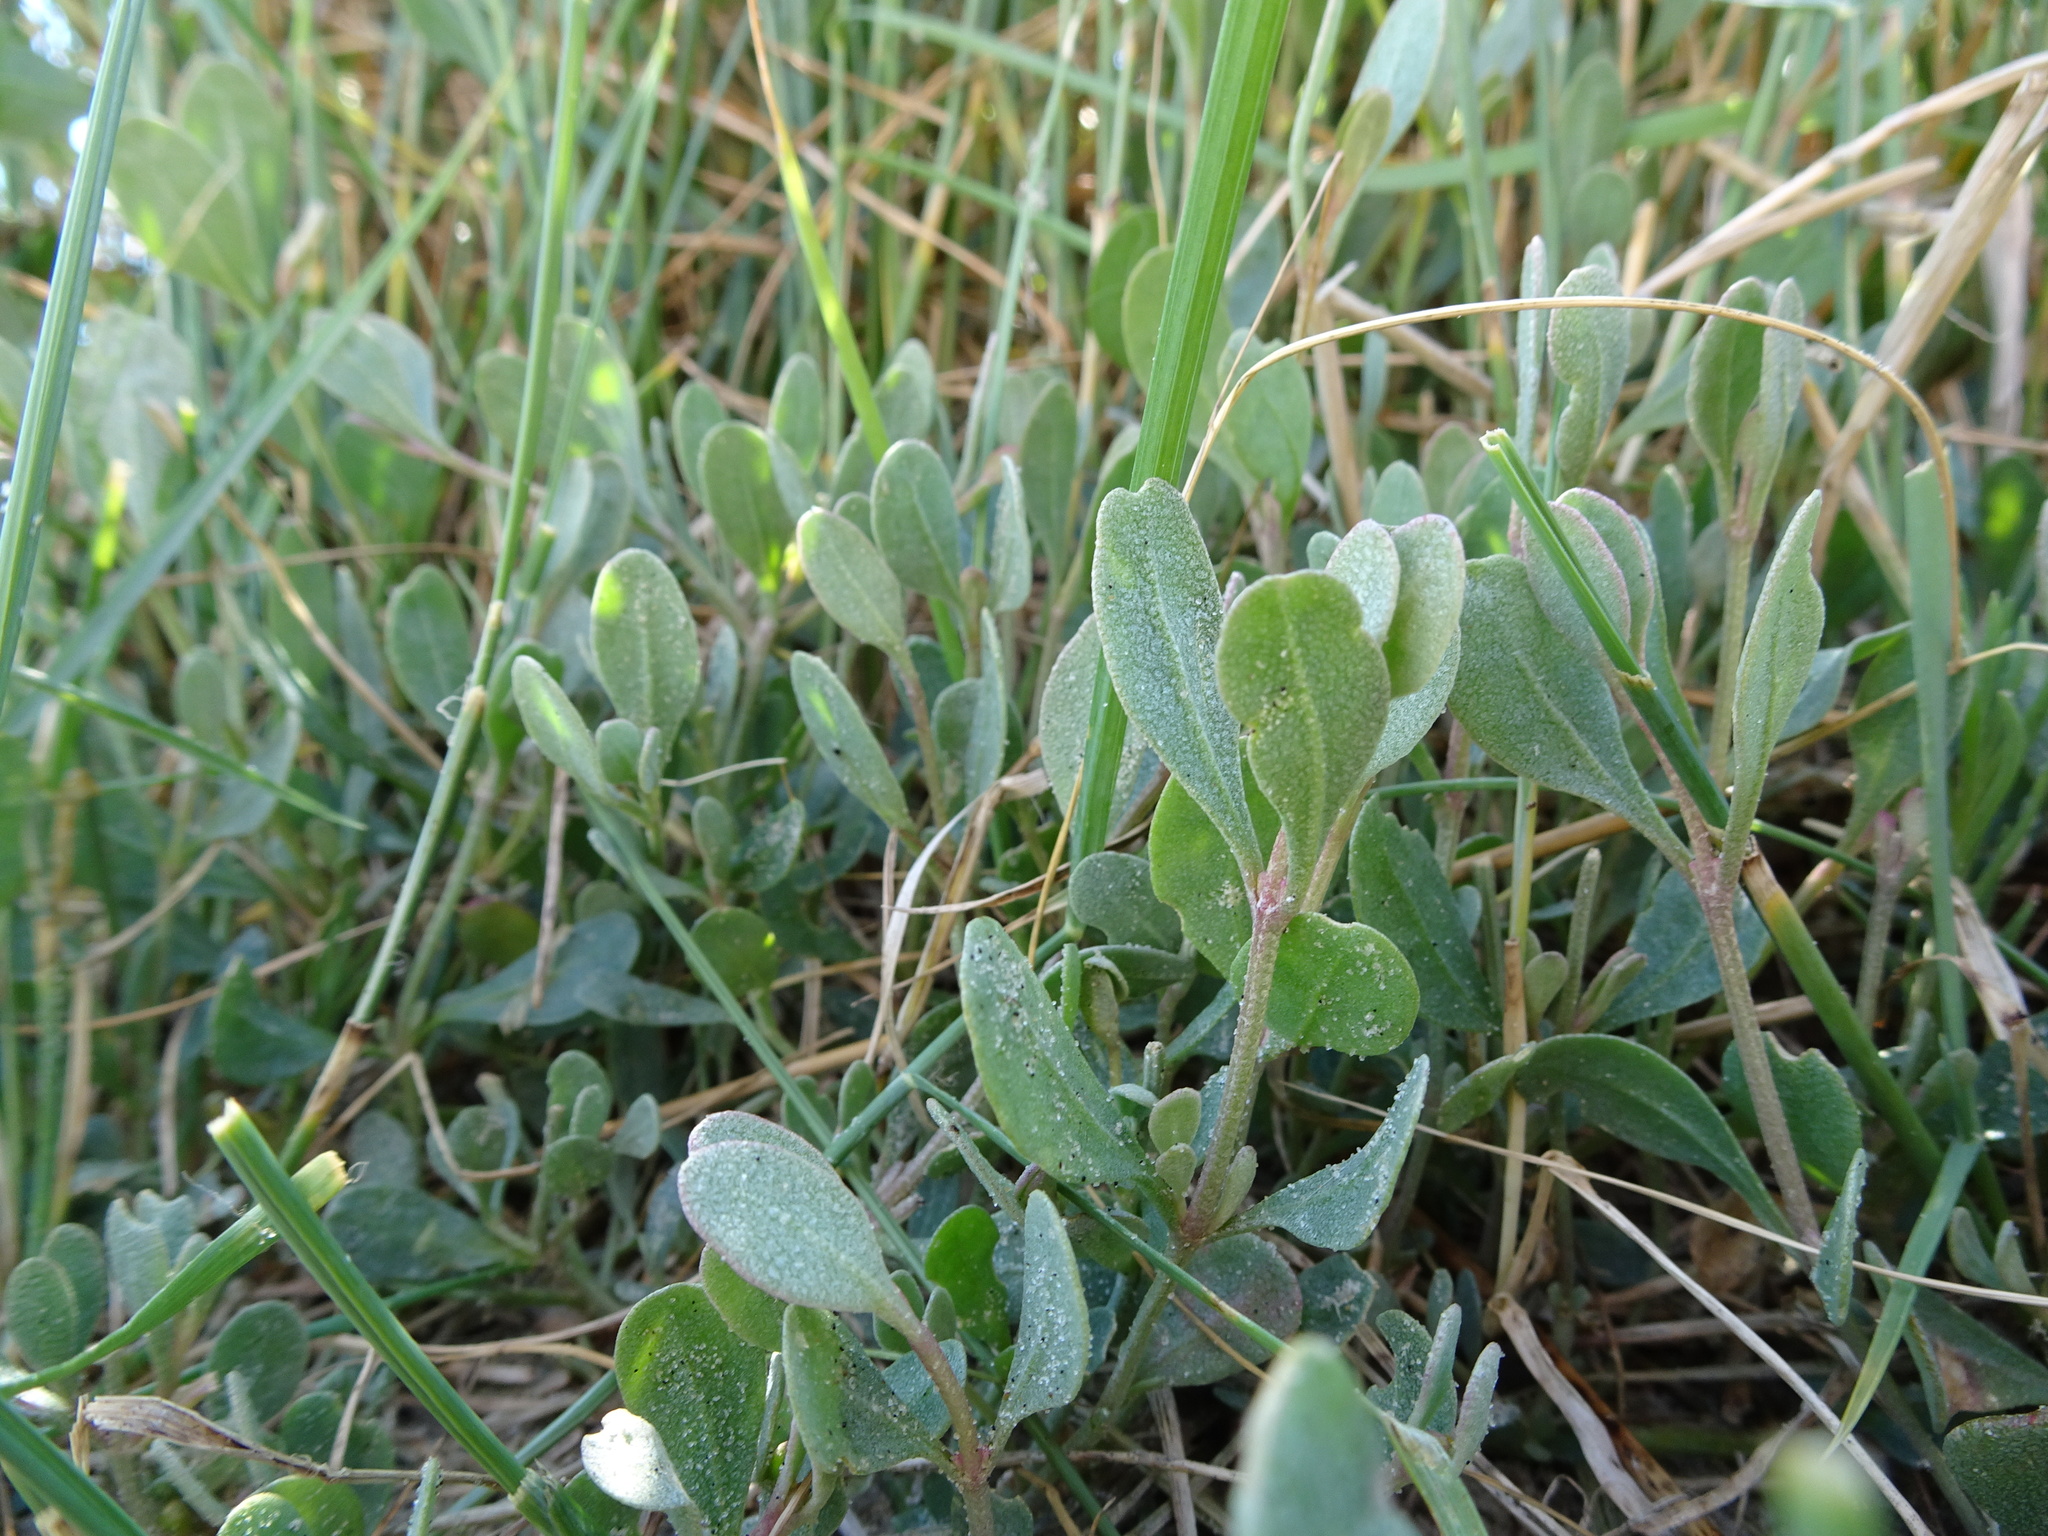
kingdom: Plantae
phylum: Tracheophyta
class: Magnoliopsida
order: Caryophyllales
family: Amaranthaceae
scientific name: Amaranthaceae
